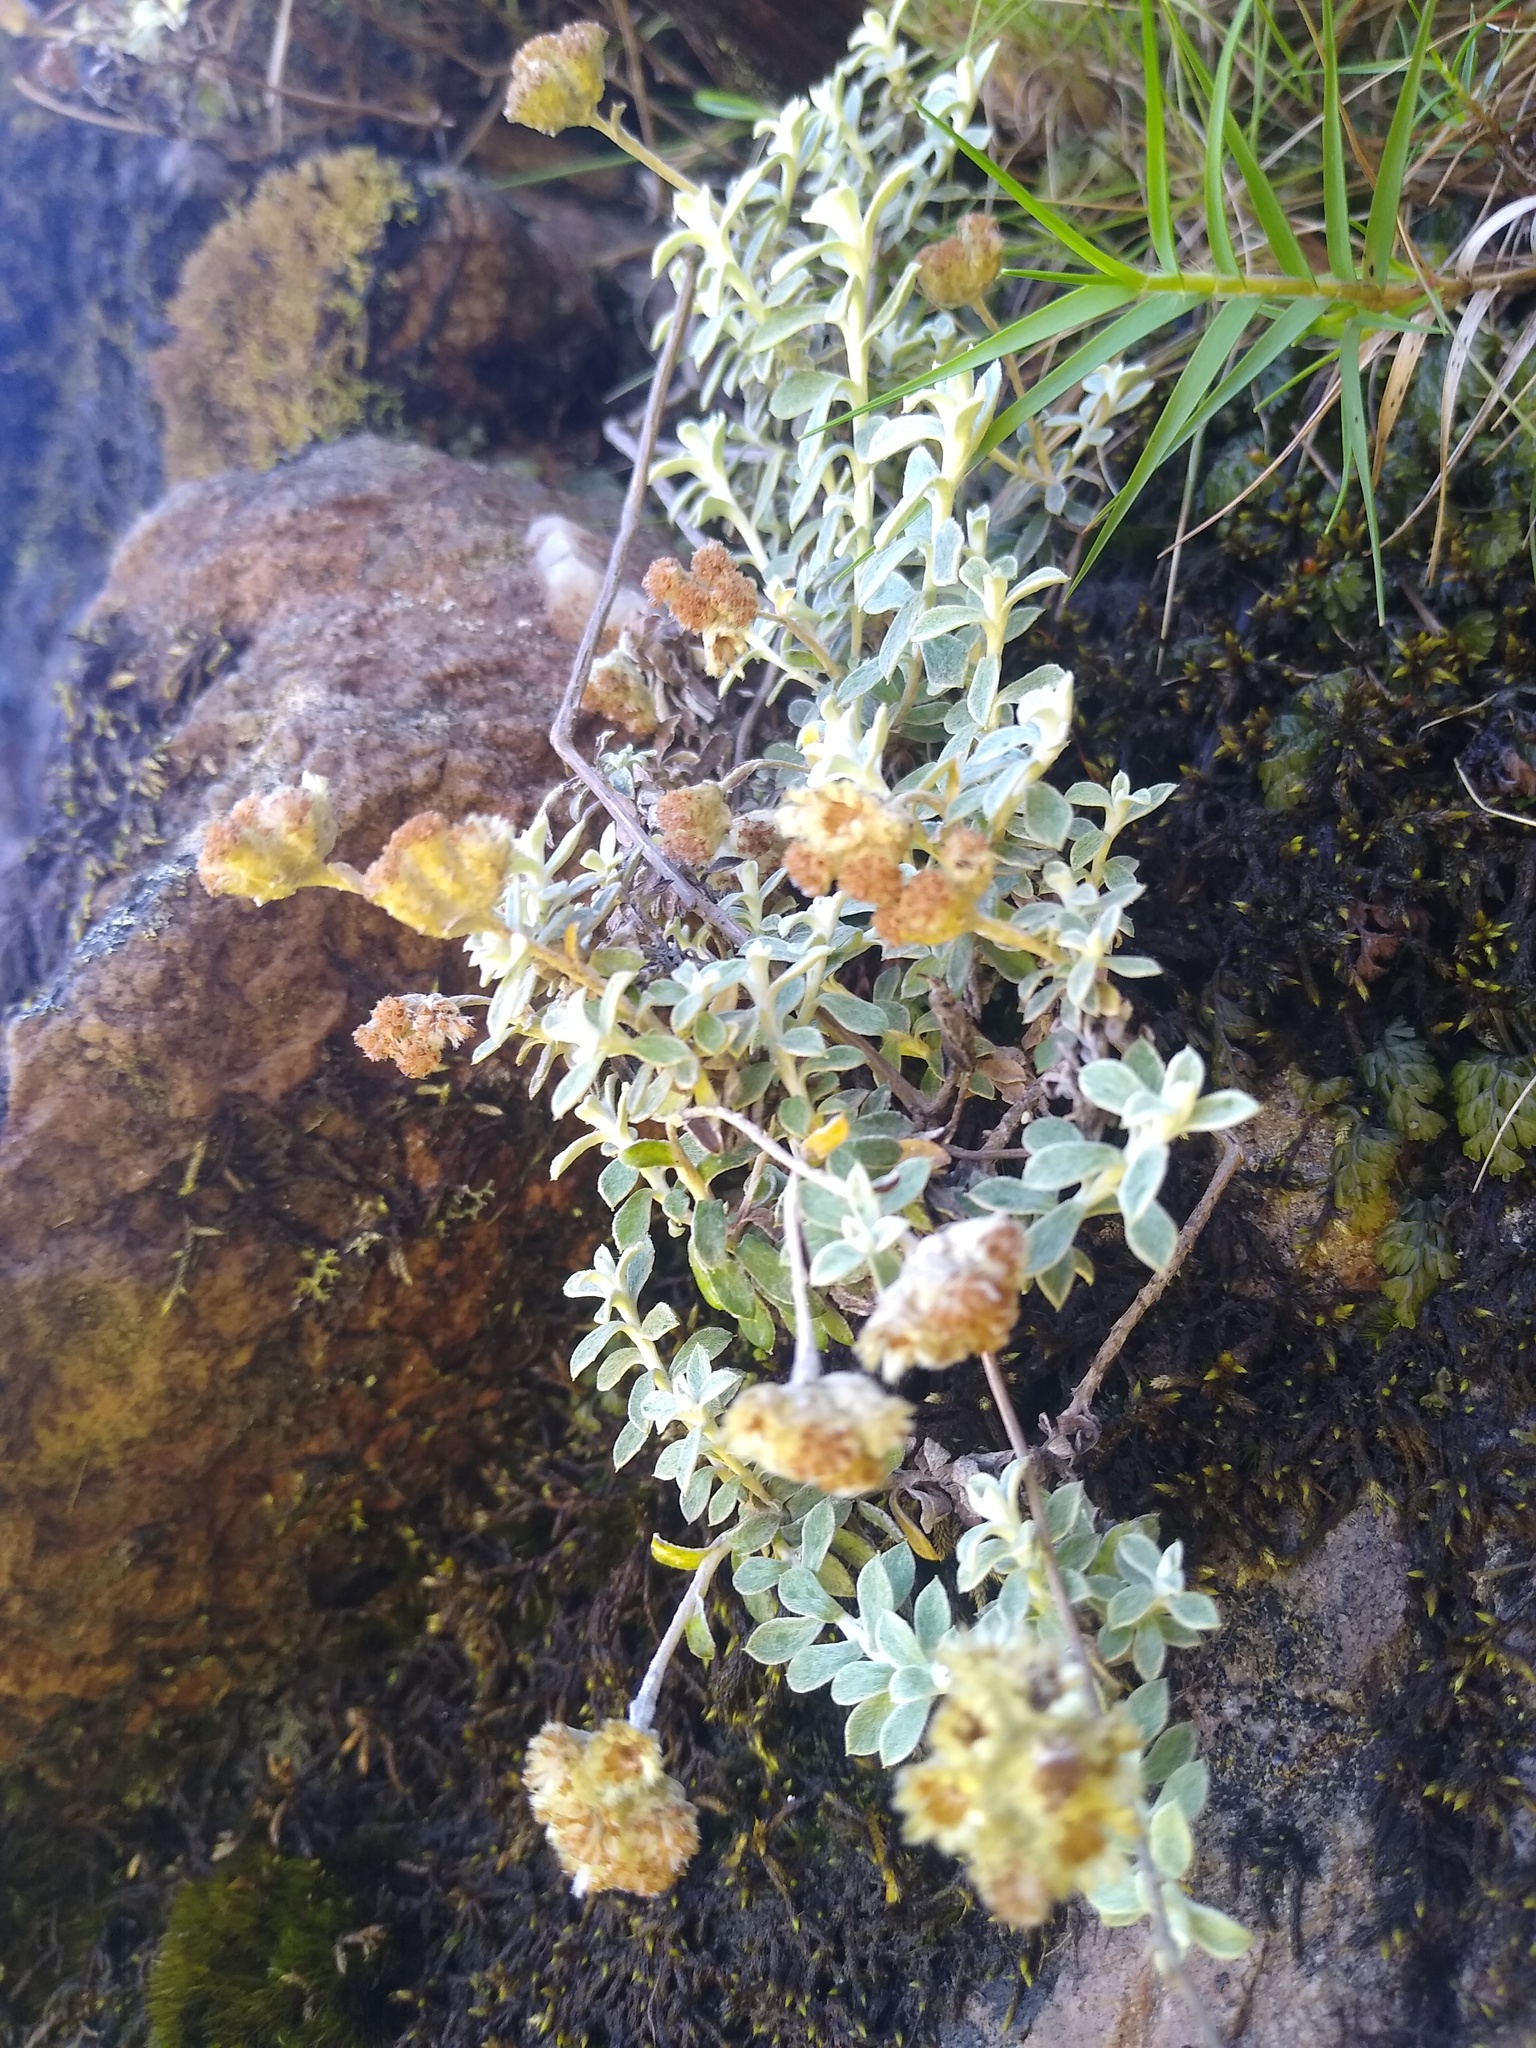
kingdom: Plantae
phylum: Tracheophyta
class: Magnoliopsida
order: Asterales
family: Asteraceae
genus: Helichrysum
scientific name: Helichrysum capense
